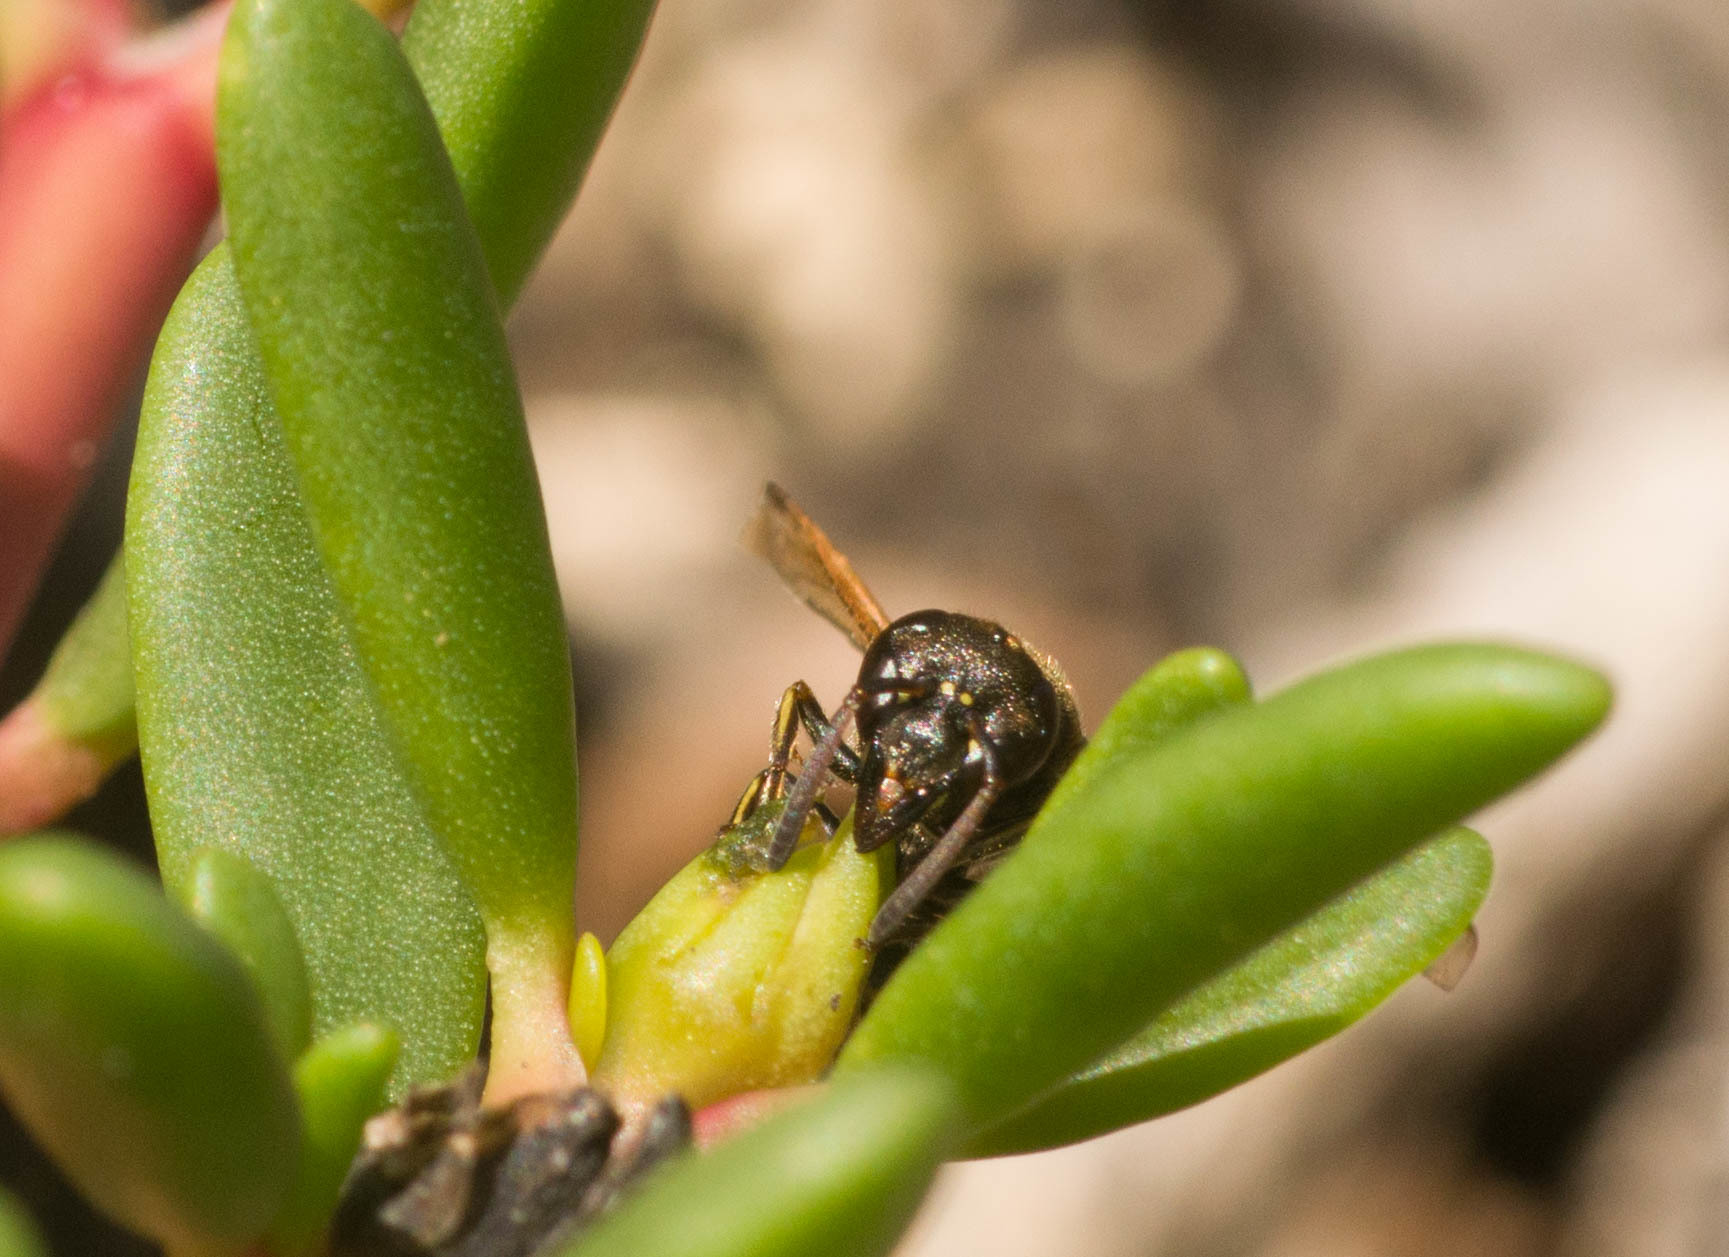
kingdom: Animalia
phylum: Arthropoda
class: Insecta
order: Hymenoptera
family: Eumenidae
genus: Pachodynerus
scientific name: Pachodynerus nasidens
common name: Key hole wasp
